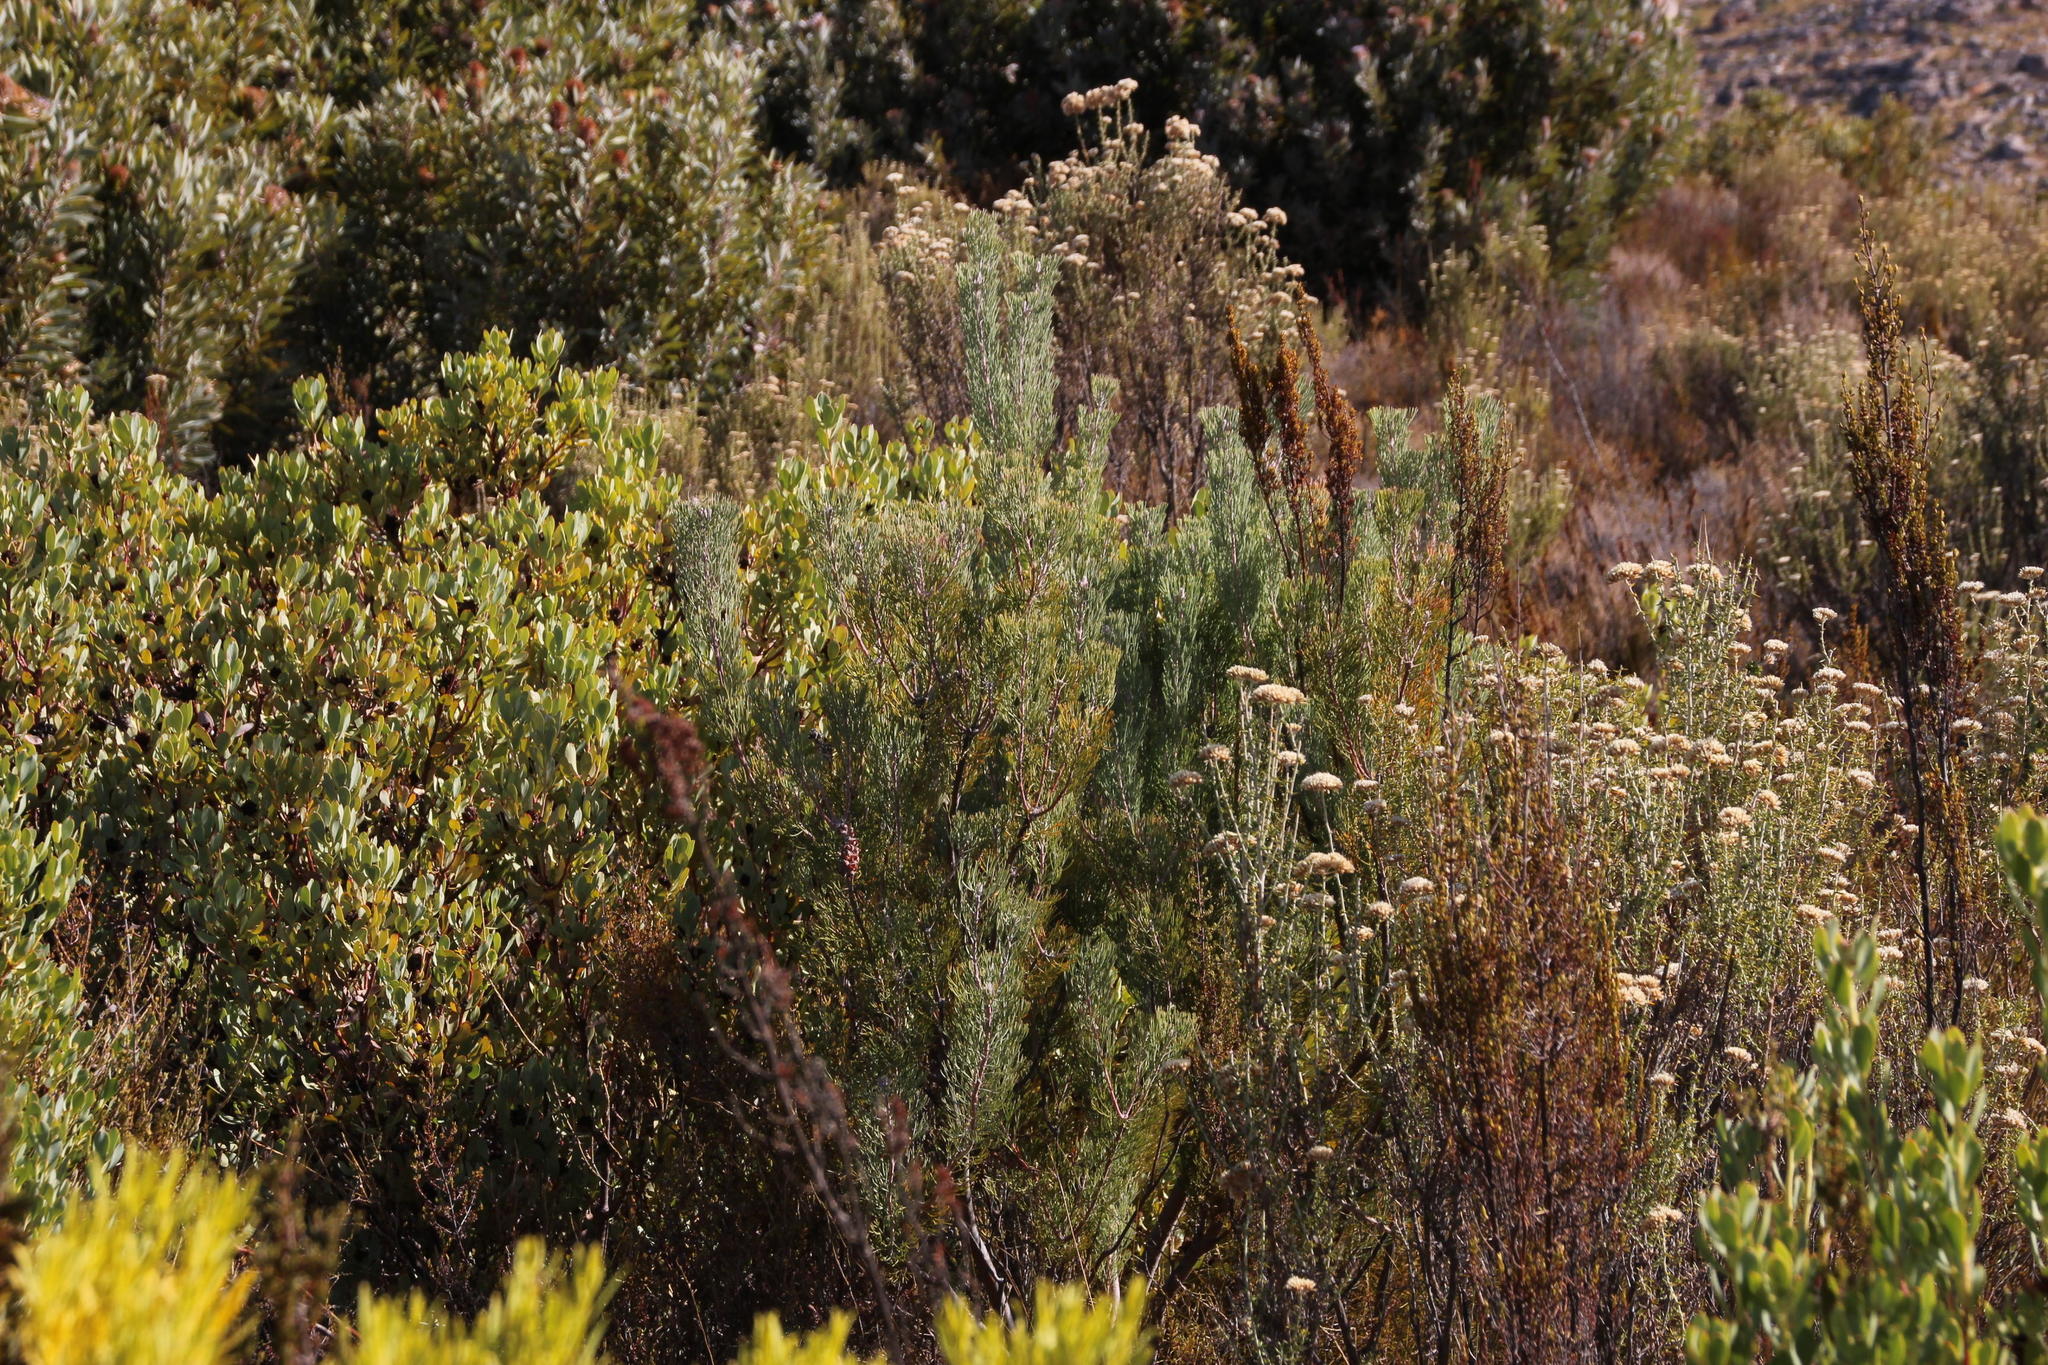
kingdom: Plantae
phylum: Tracheophyta
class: Magnoliopsida
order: Proteales
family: Proteaceae
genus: Paranomus
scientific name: Paranomus bracteolaris
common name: Bokkeveld tree sceptre
